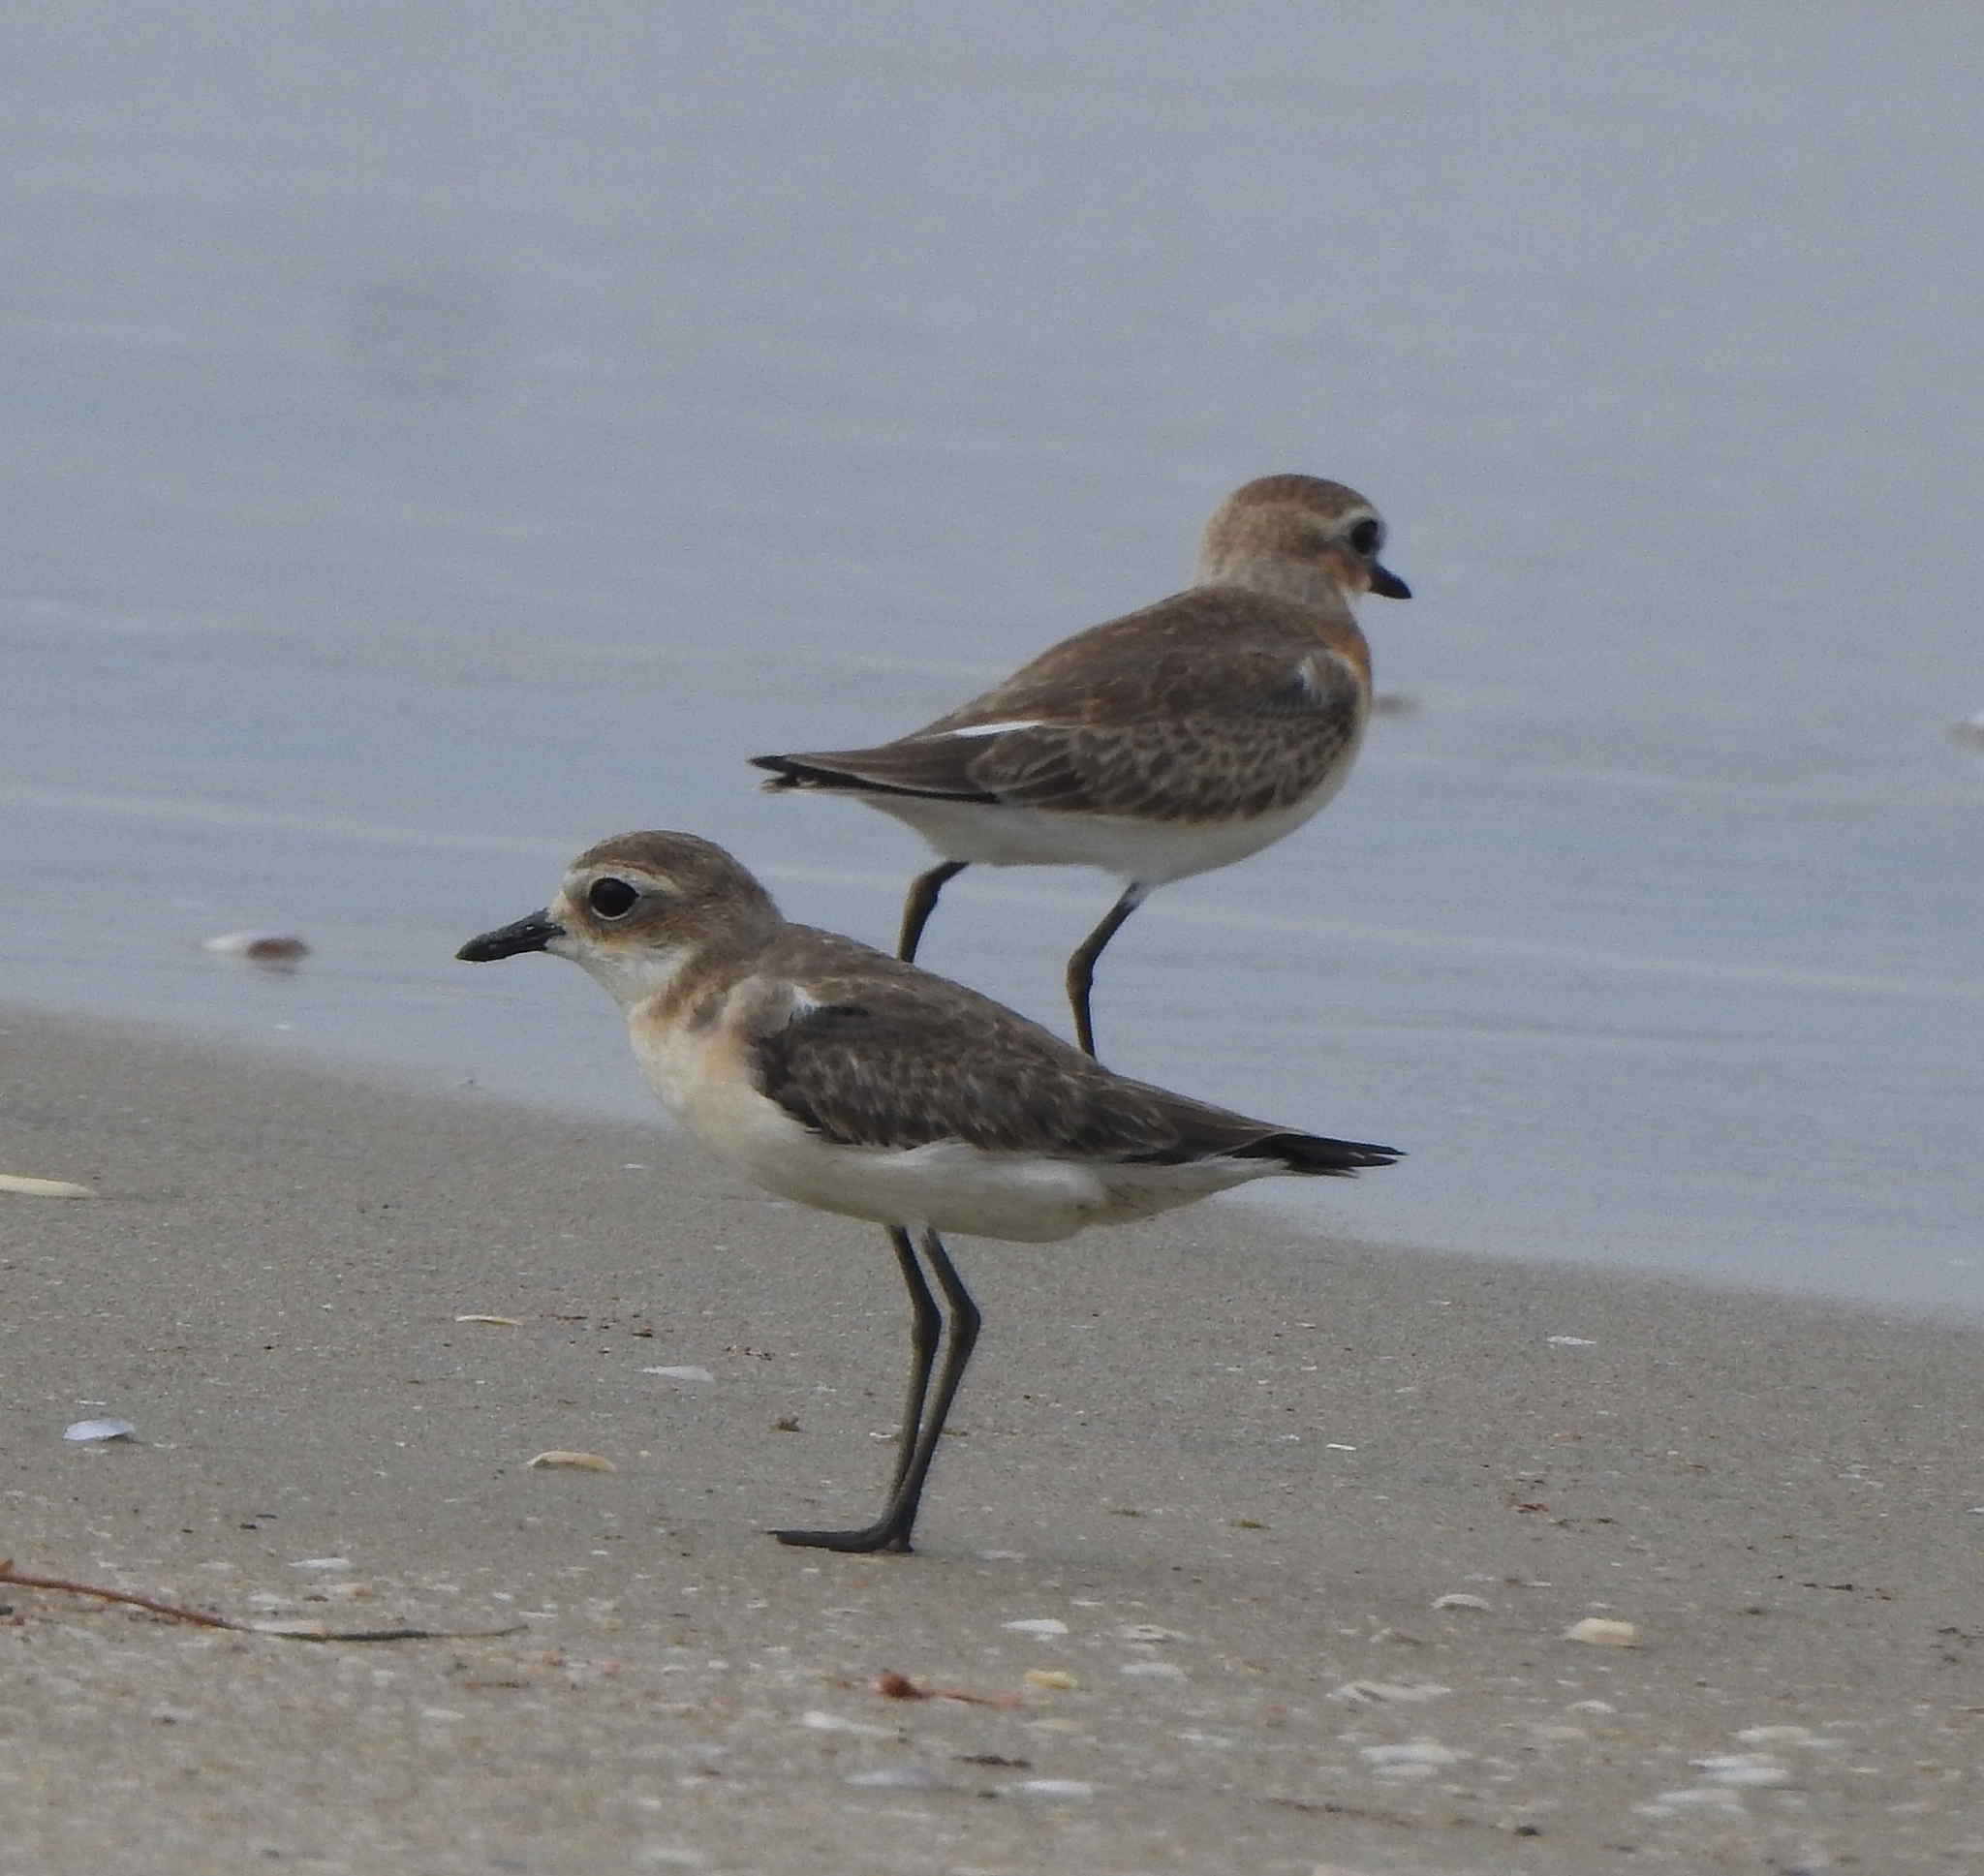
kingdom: Animalia
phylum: Chordata
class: Aves
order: Charadriiformes
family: Charadriidae
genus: Anarhynchus
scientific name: Anarhynchus
